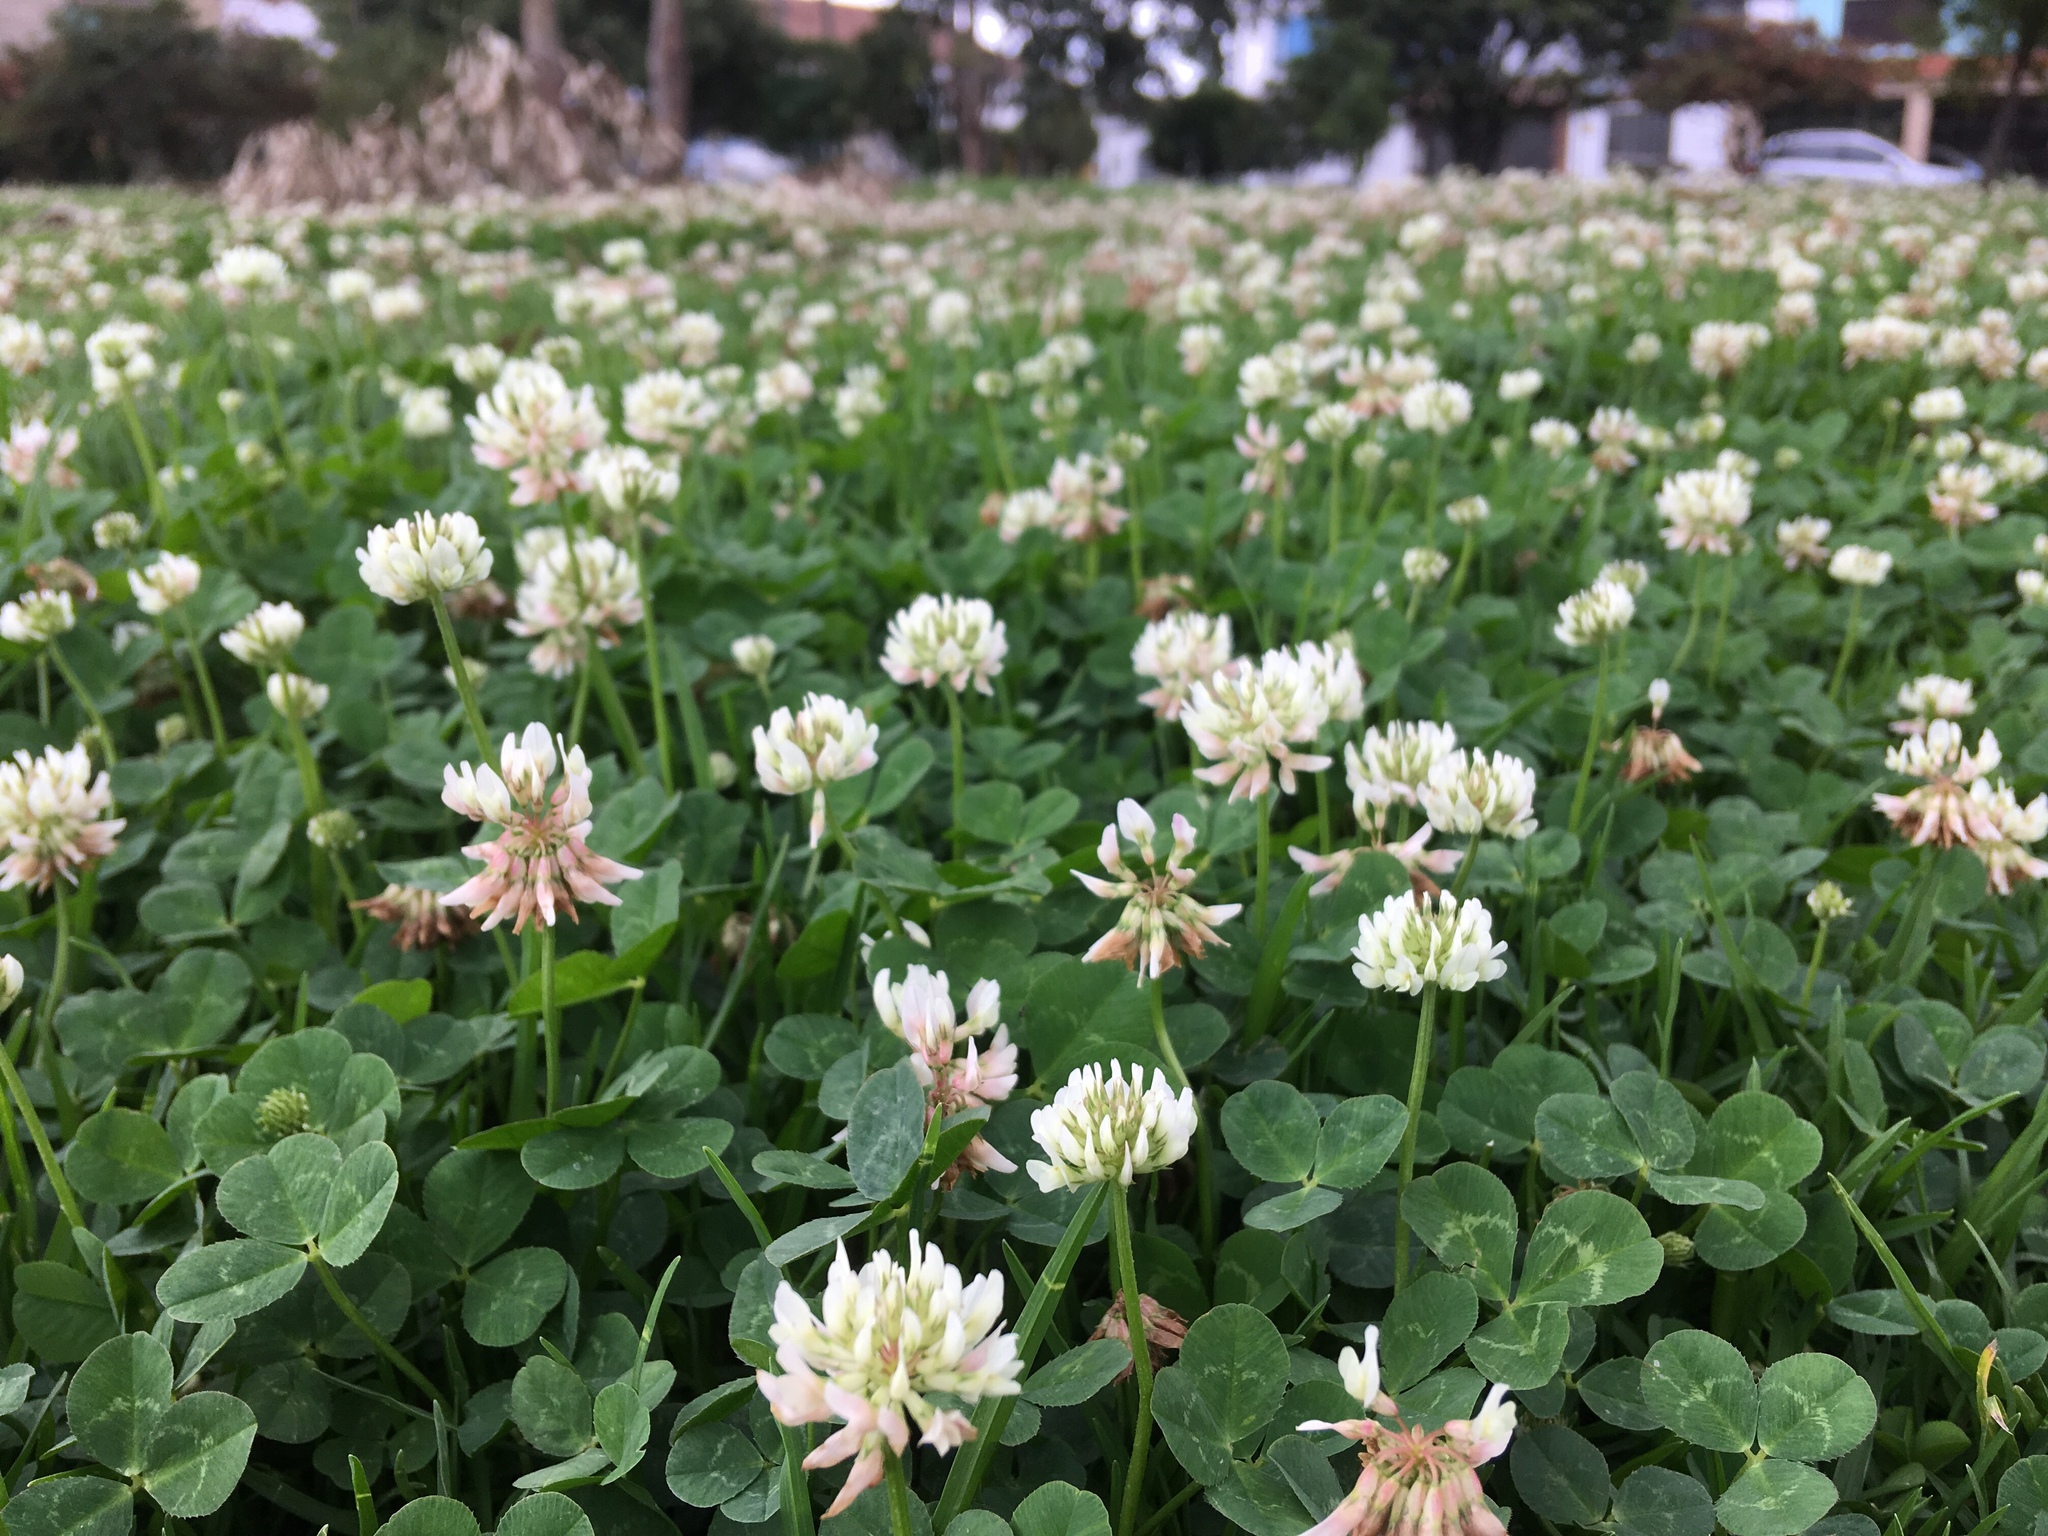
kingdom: Plantae
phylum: Tracheophyta
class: Magnoliopsida
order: Fabales
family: Fabaceae
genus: Trifolium
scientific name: Trifolium repens
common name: White clover
